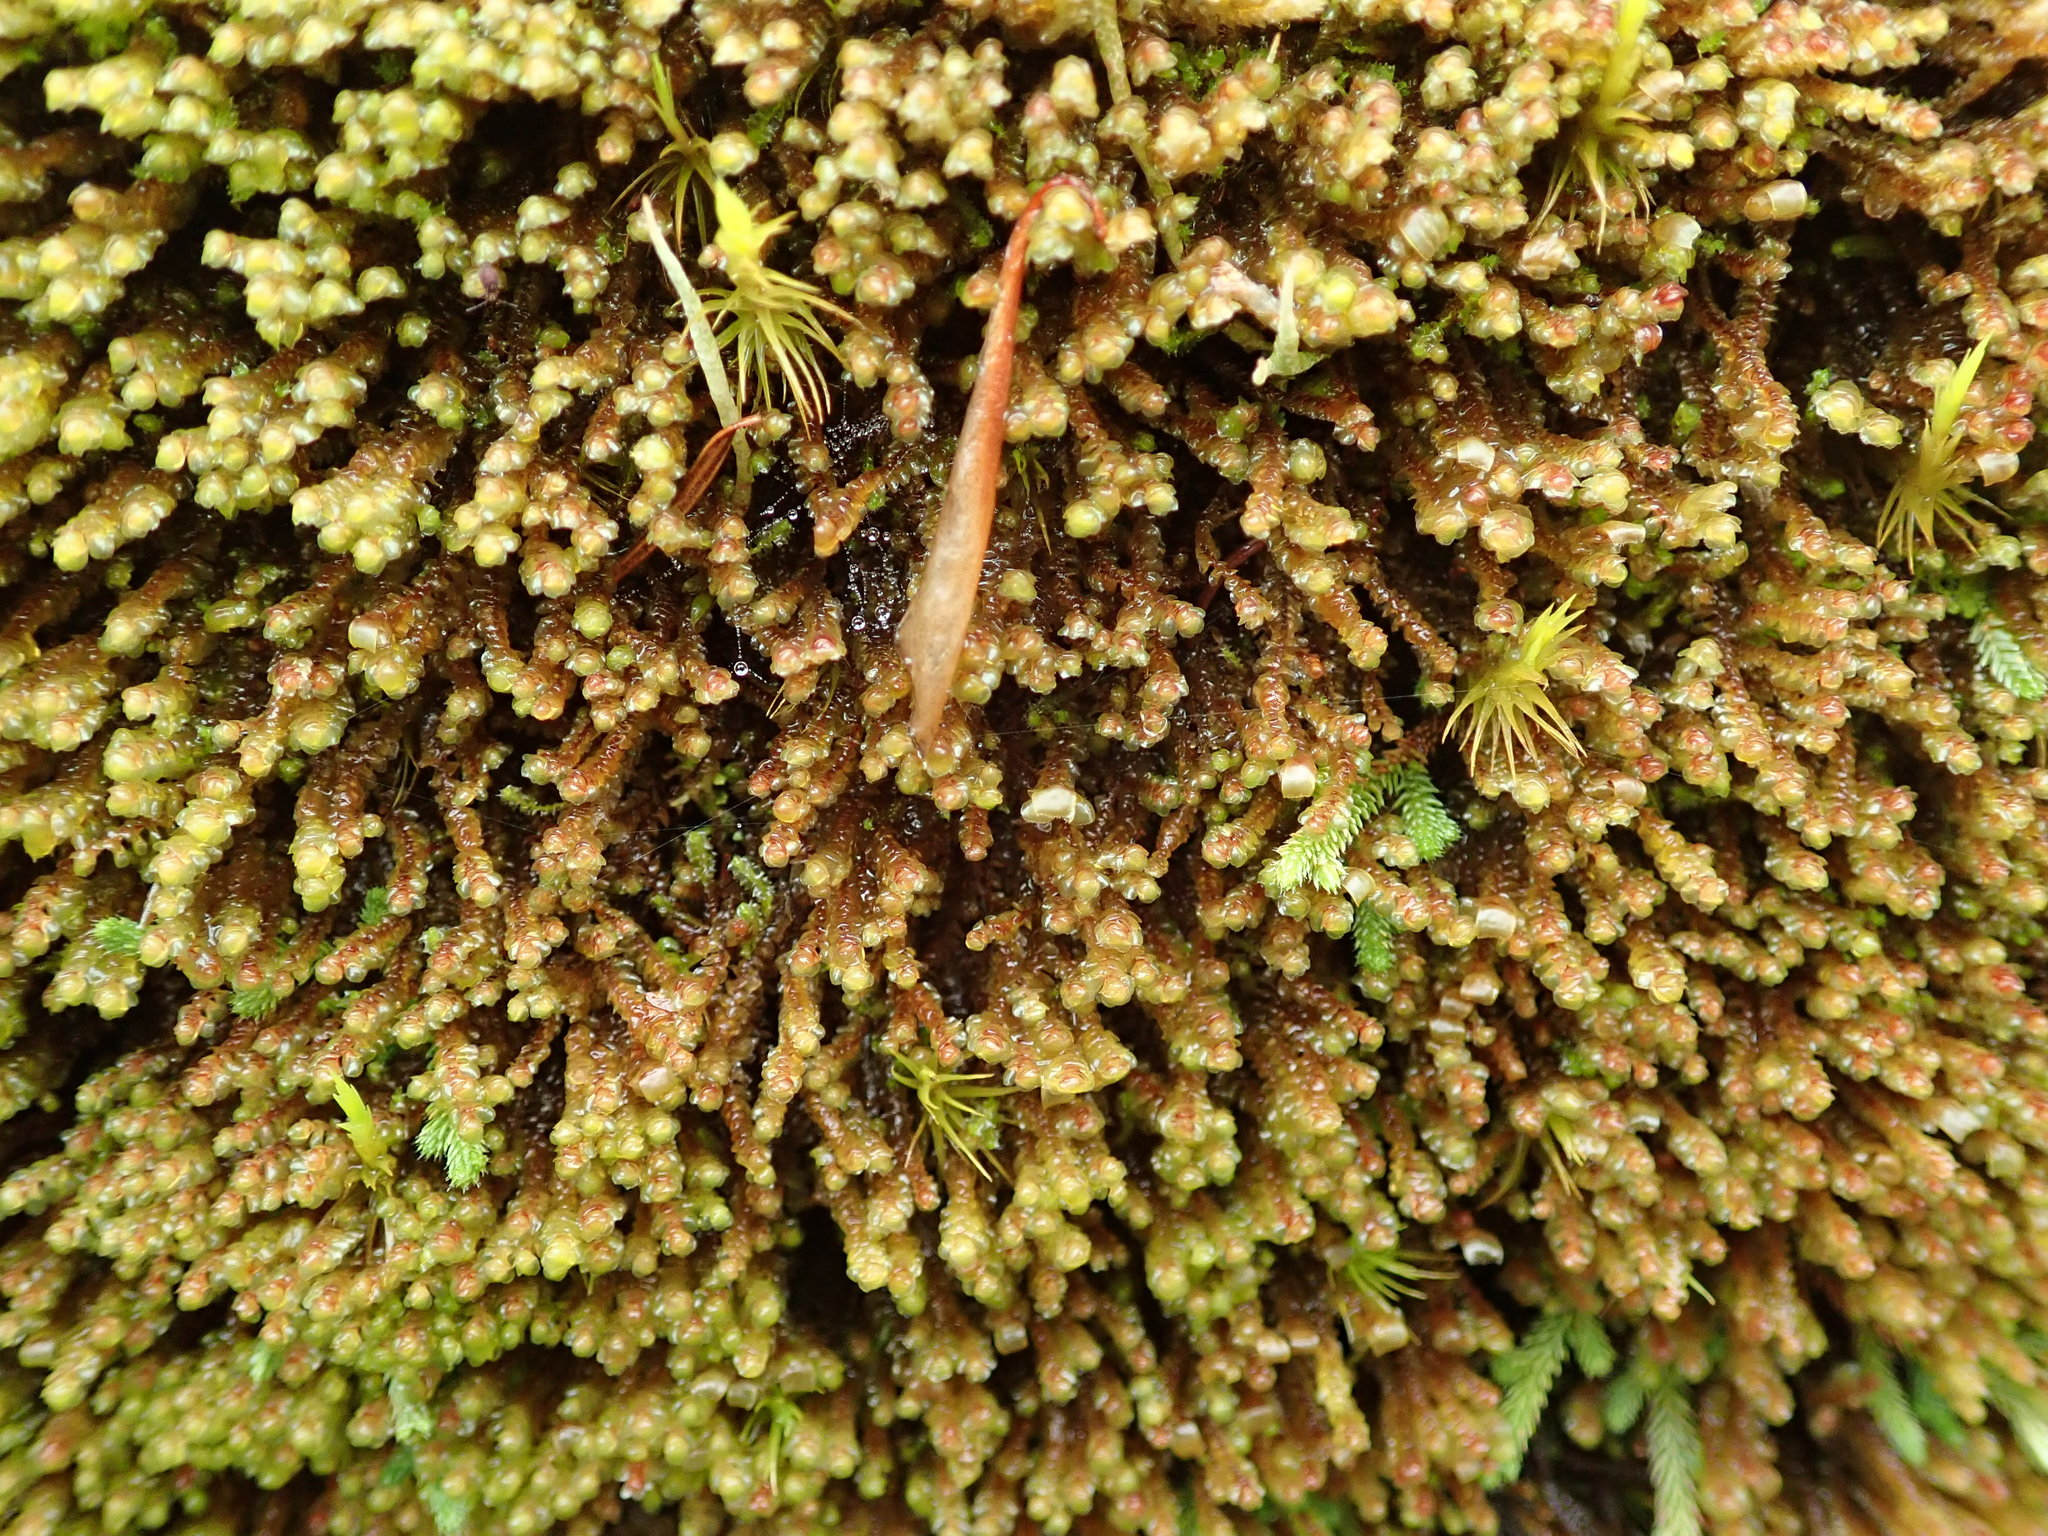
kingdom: Plantae
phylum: Marchantiophyta
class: Jungermanniopsida
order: Jungermanniales
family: Scapaniaceae
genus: Scapania
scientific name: Scapania americana
